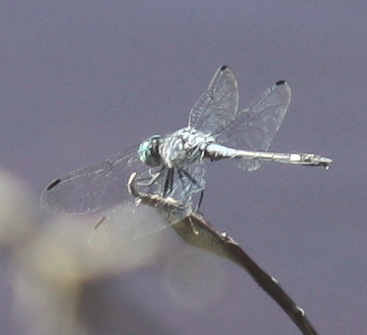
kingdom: Animalia
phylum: Arthropoda
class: Insecta
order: Odonata
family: Libellulidae
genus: Micrathyria
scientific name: Micrathyria aequalis
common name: Spot-tailed dasher
